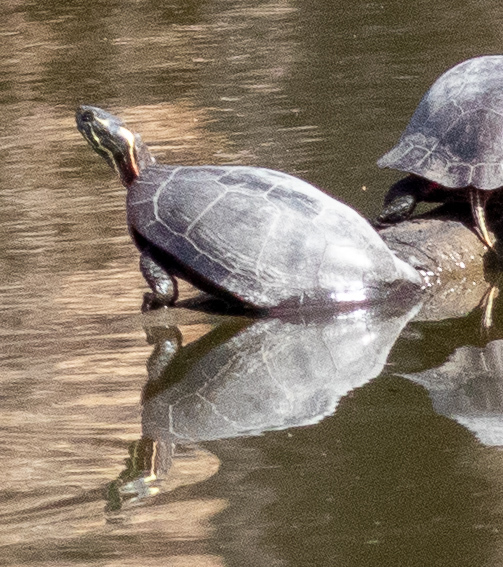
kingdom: Animalia
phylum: Chordata
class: Testudines
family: Emydidae
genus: Chrysemys
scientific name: Chrysemys picta
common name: Painted turtle
